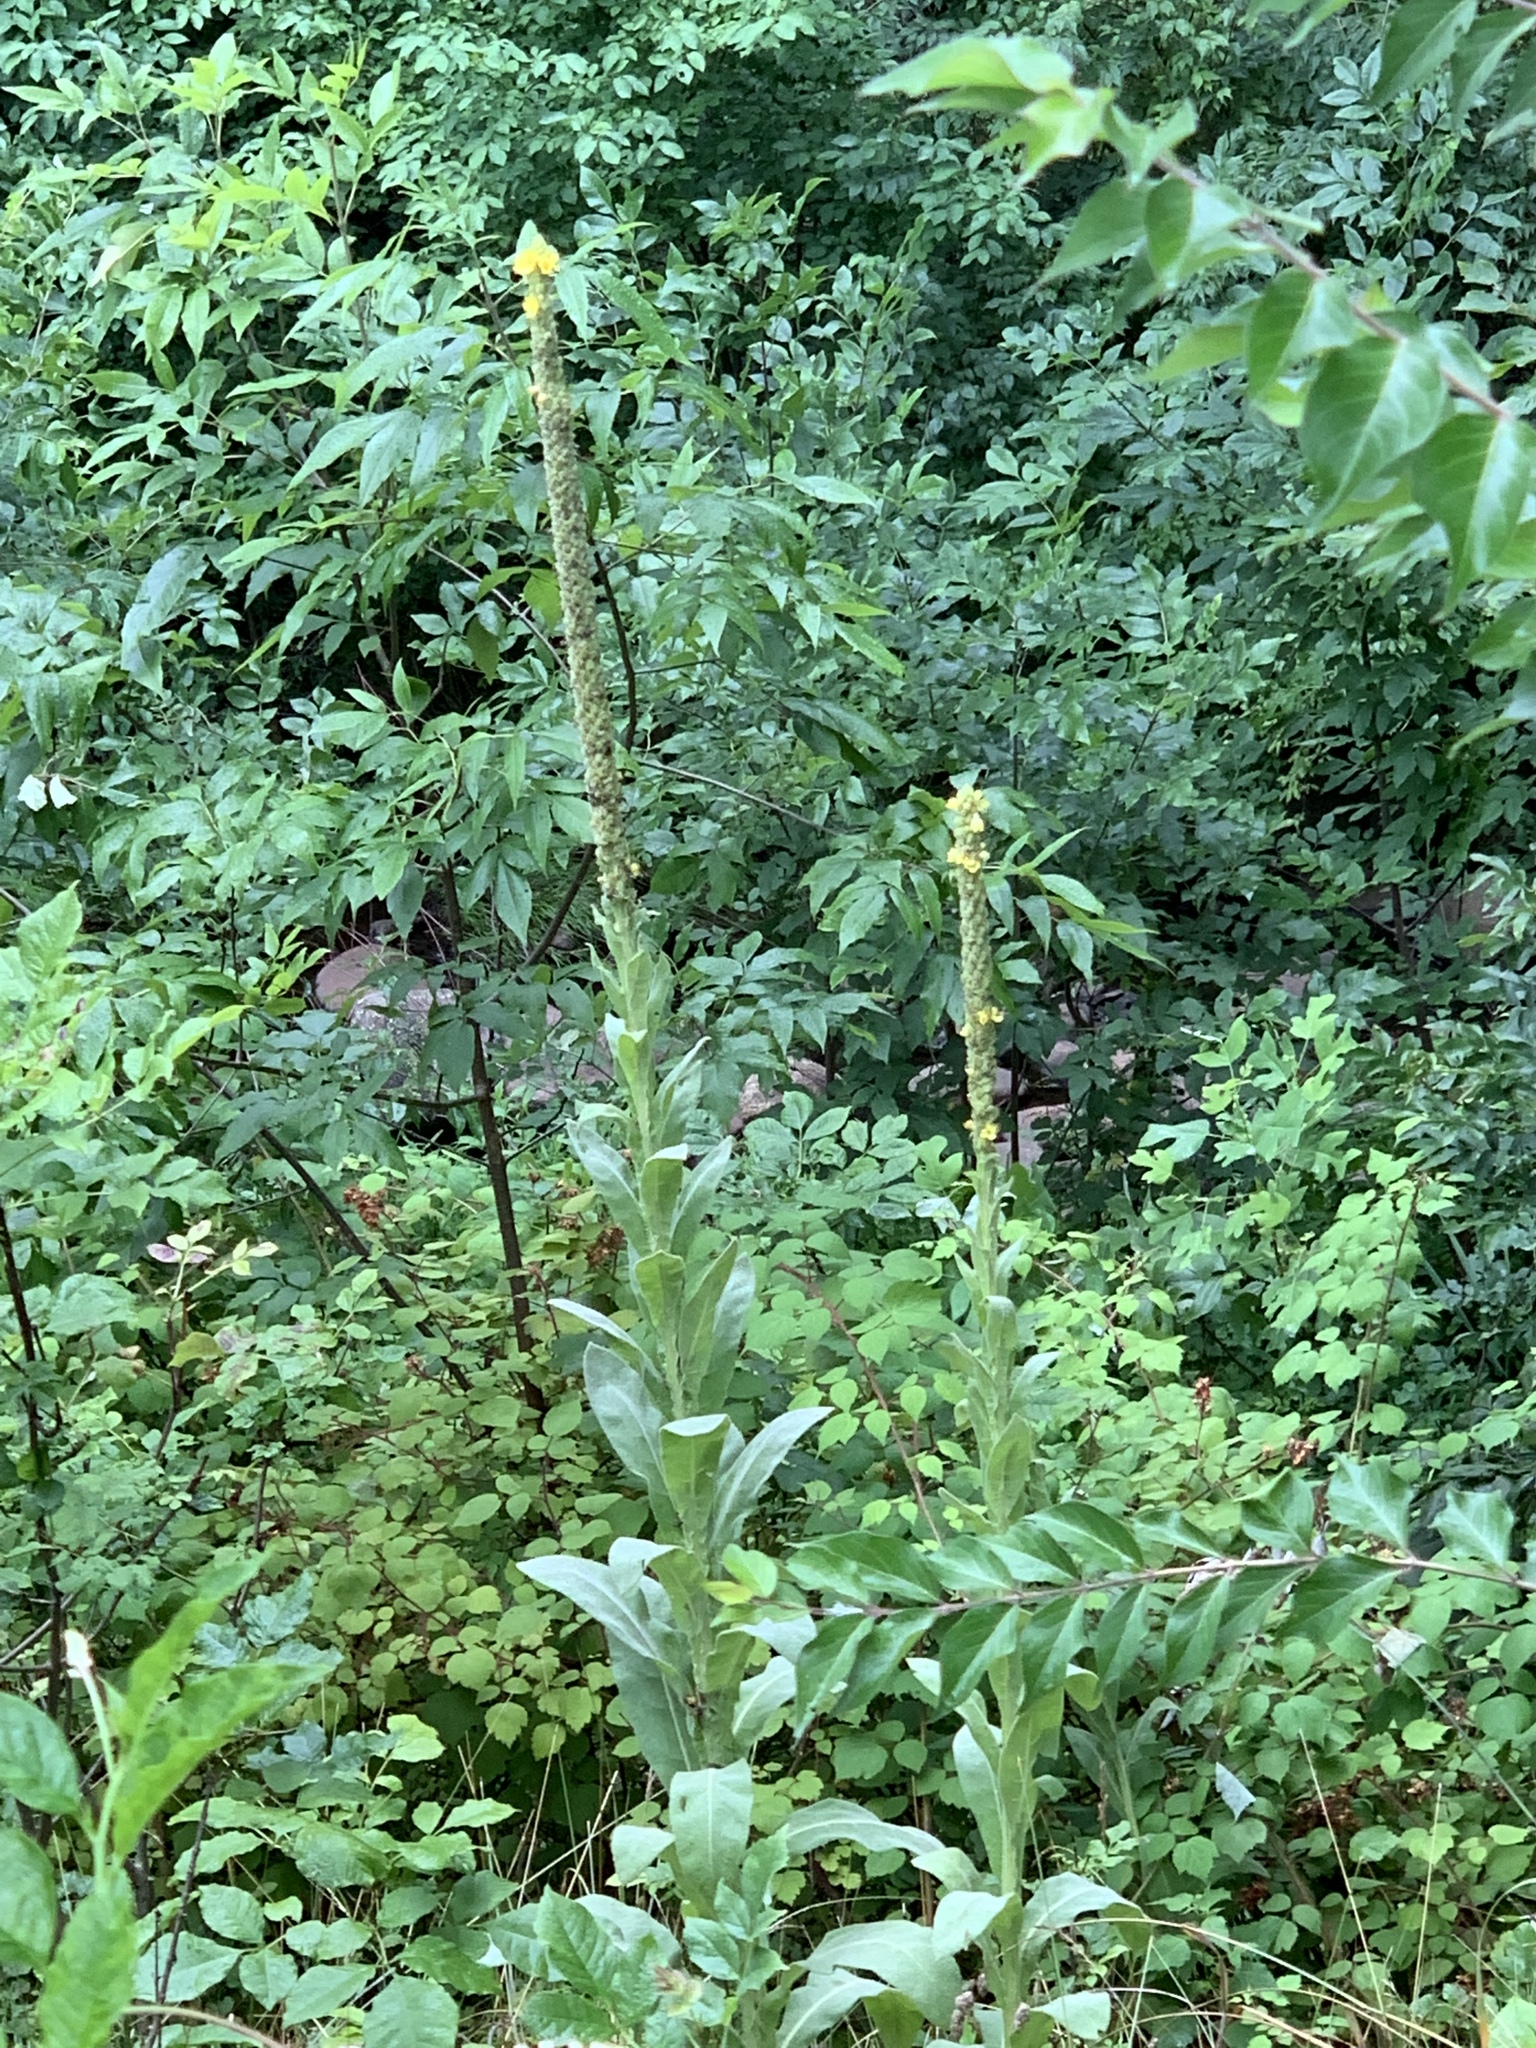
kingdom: Plantae
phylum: Tracheophyta
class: Magnoliopsida
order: Lamiales
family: Scrophulariaceae
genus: Verbascum
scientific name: Verbascum thapsus
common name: Common mullein
